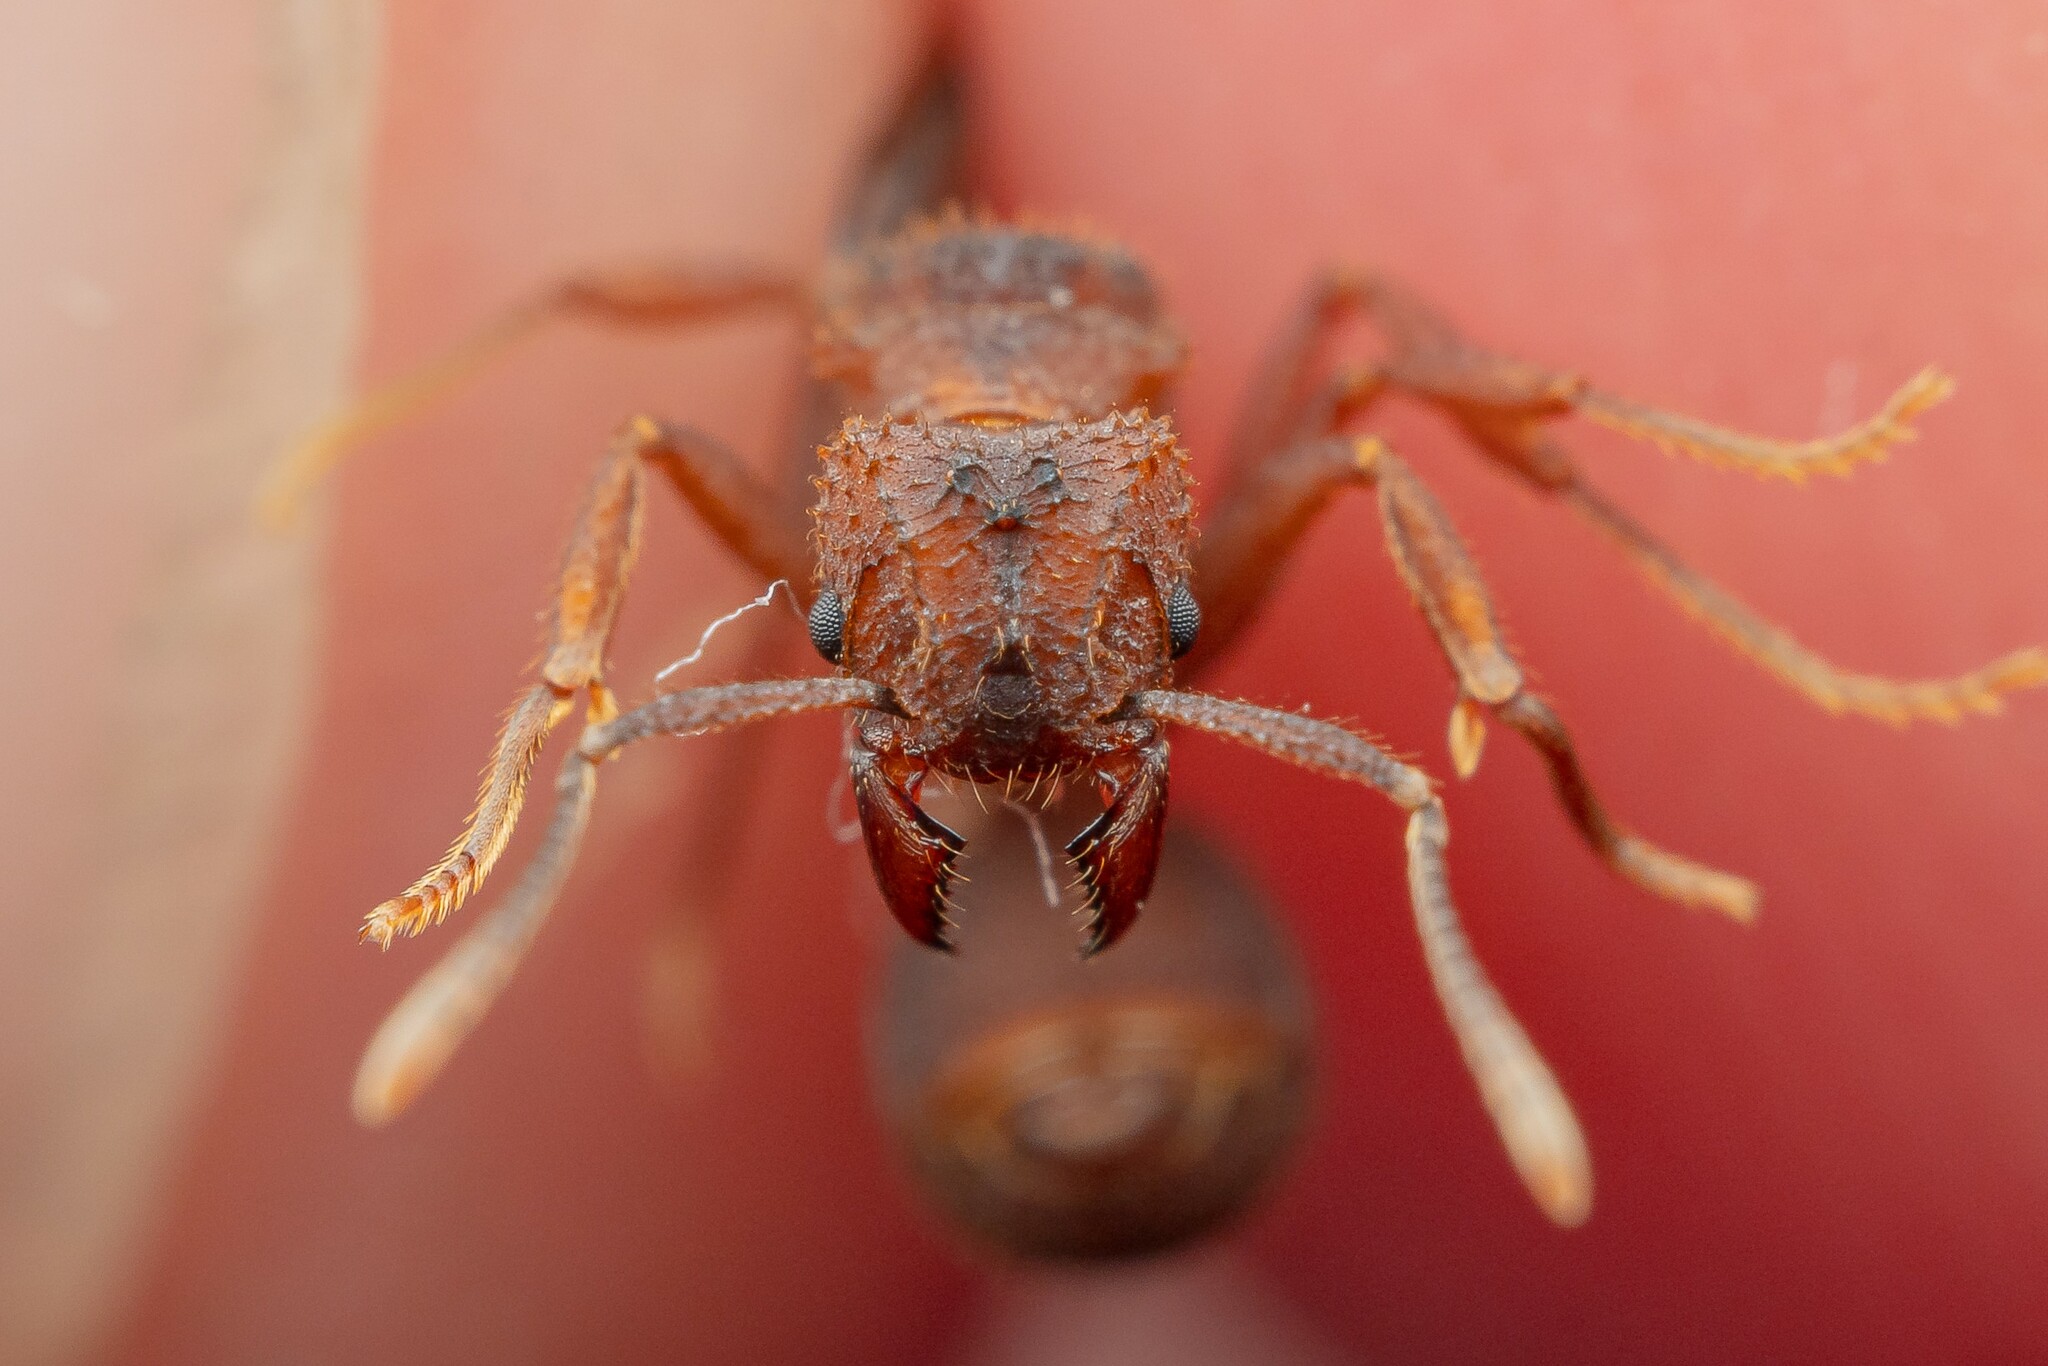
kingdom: Animalia
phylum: Arthropoda
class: Insecta
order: Hymenoptera
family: Formicidae
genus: Trachymyrmex
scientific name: Trachymyrmex carinatus
